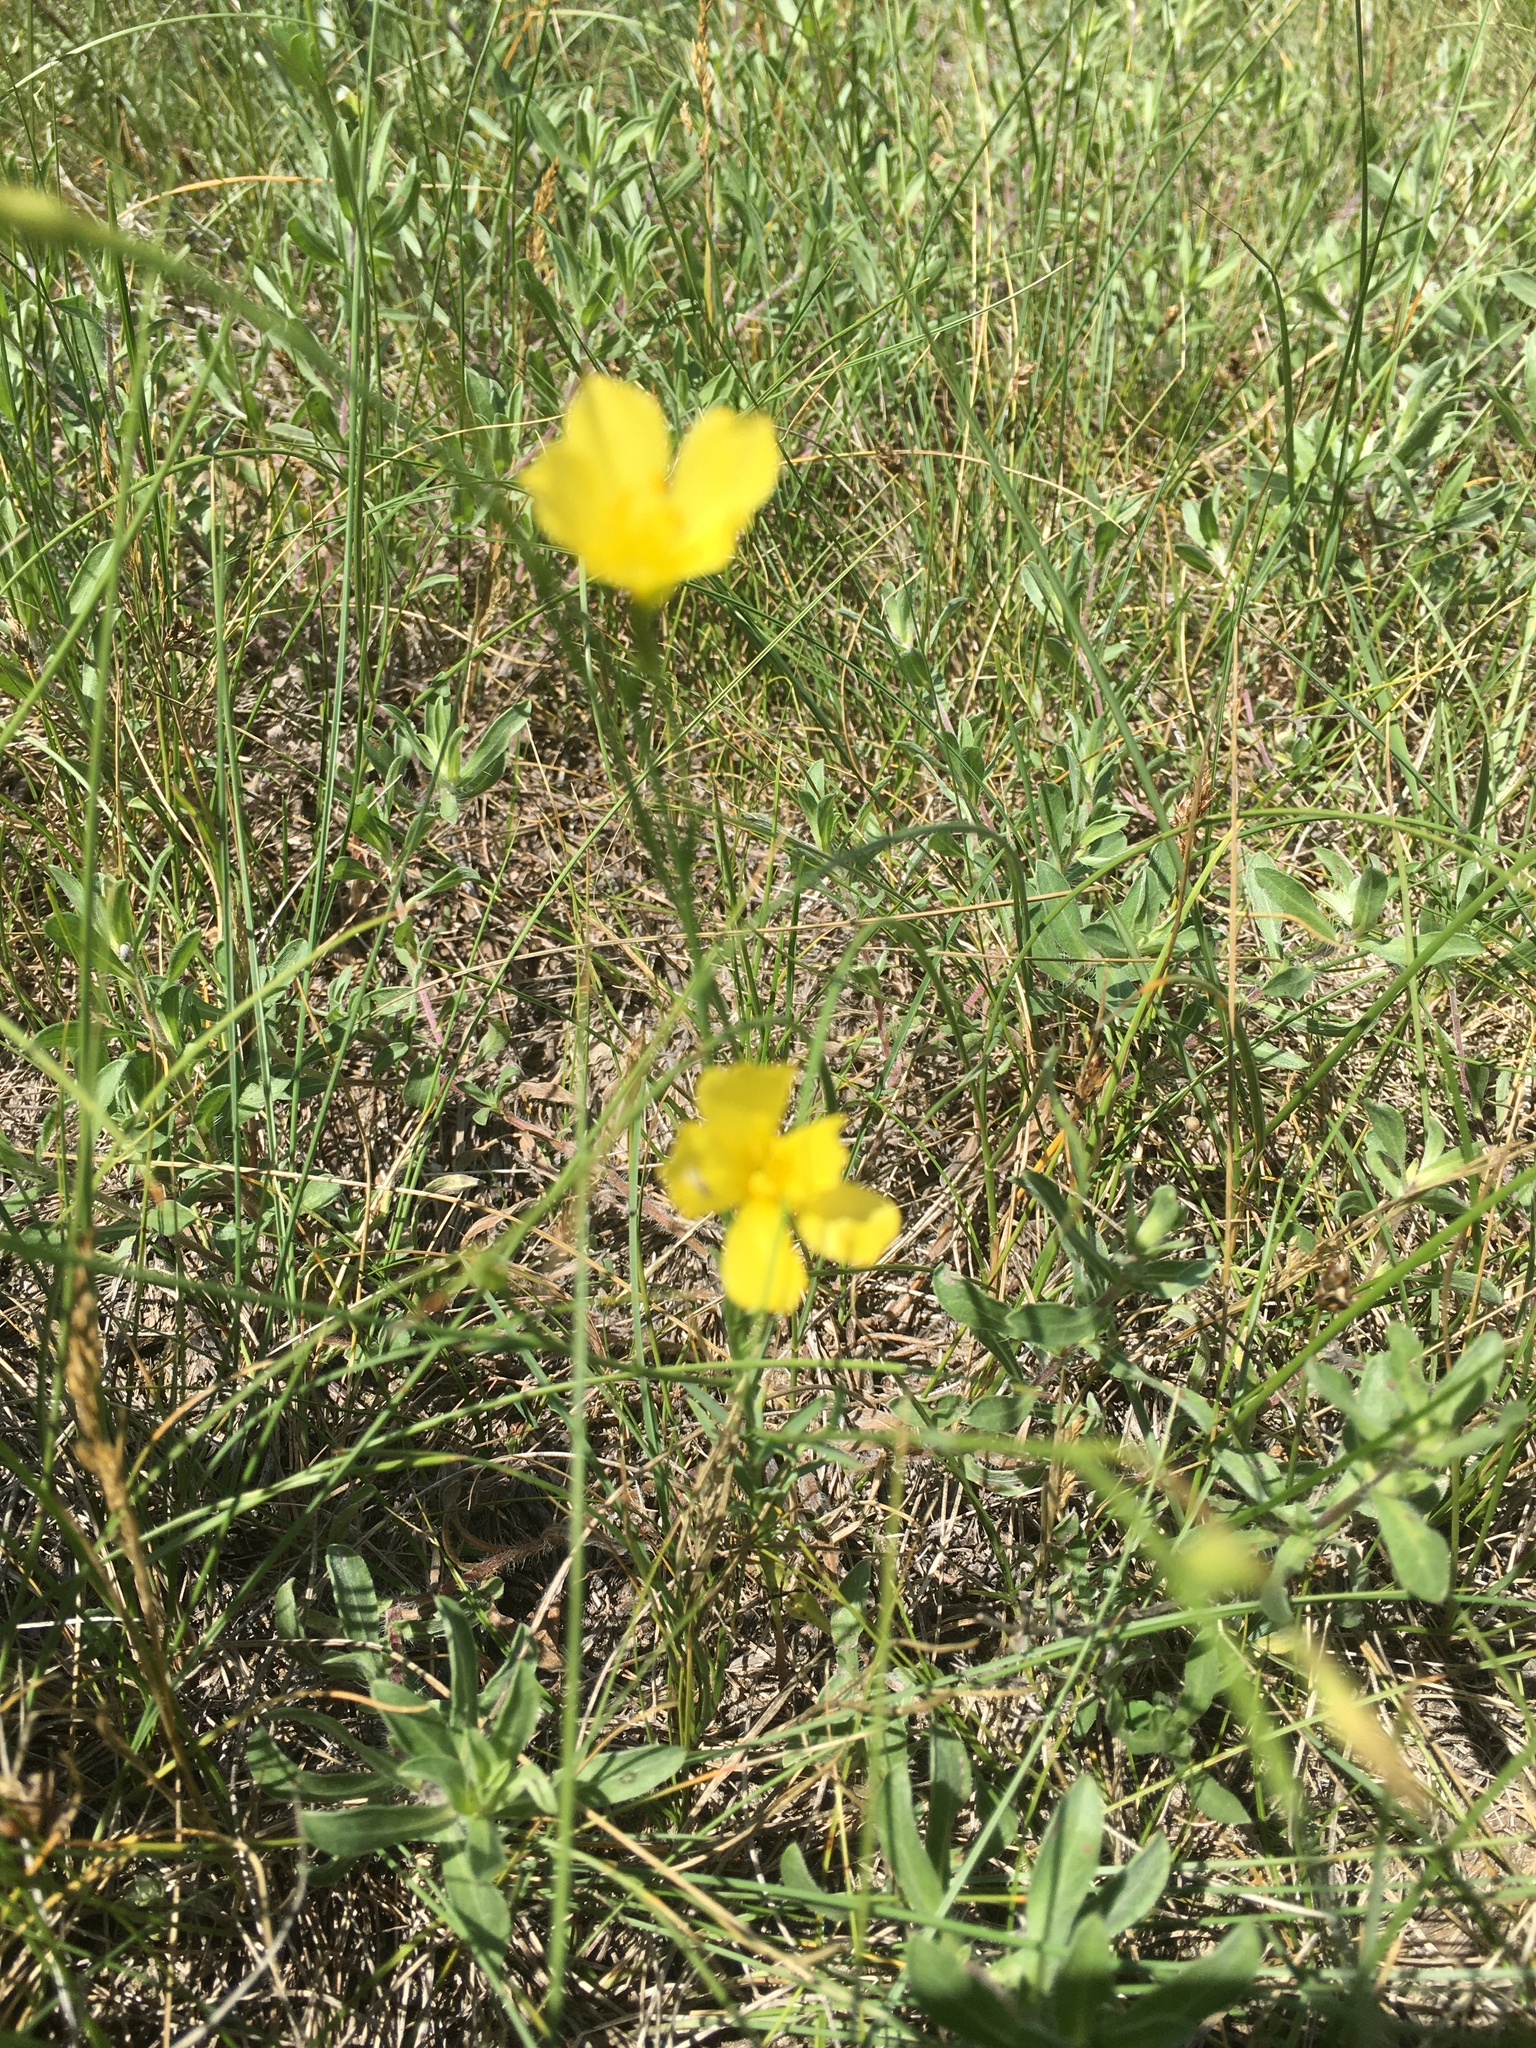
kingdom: Plantae
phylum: Tracheophyta
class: Magnoliopsida
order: Malpighiales
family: Linaceae
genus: Linum
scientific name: Linum rigidum
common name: Stiff-stem flax
